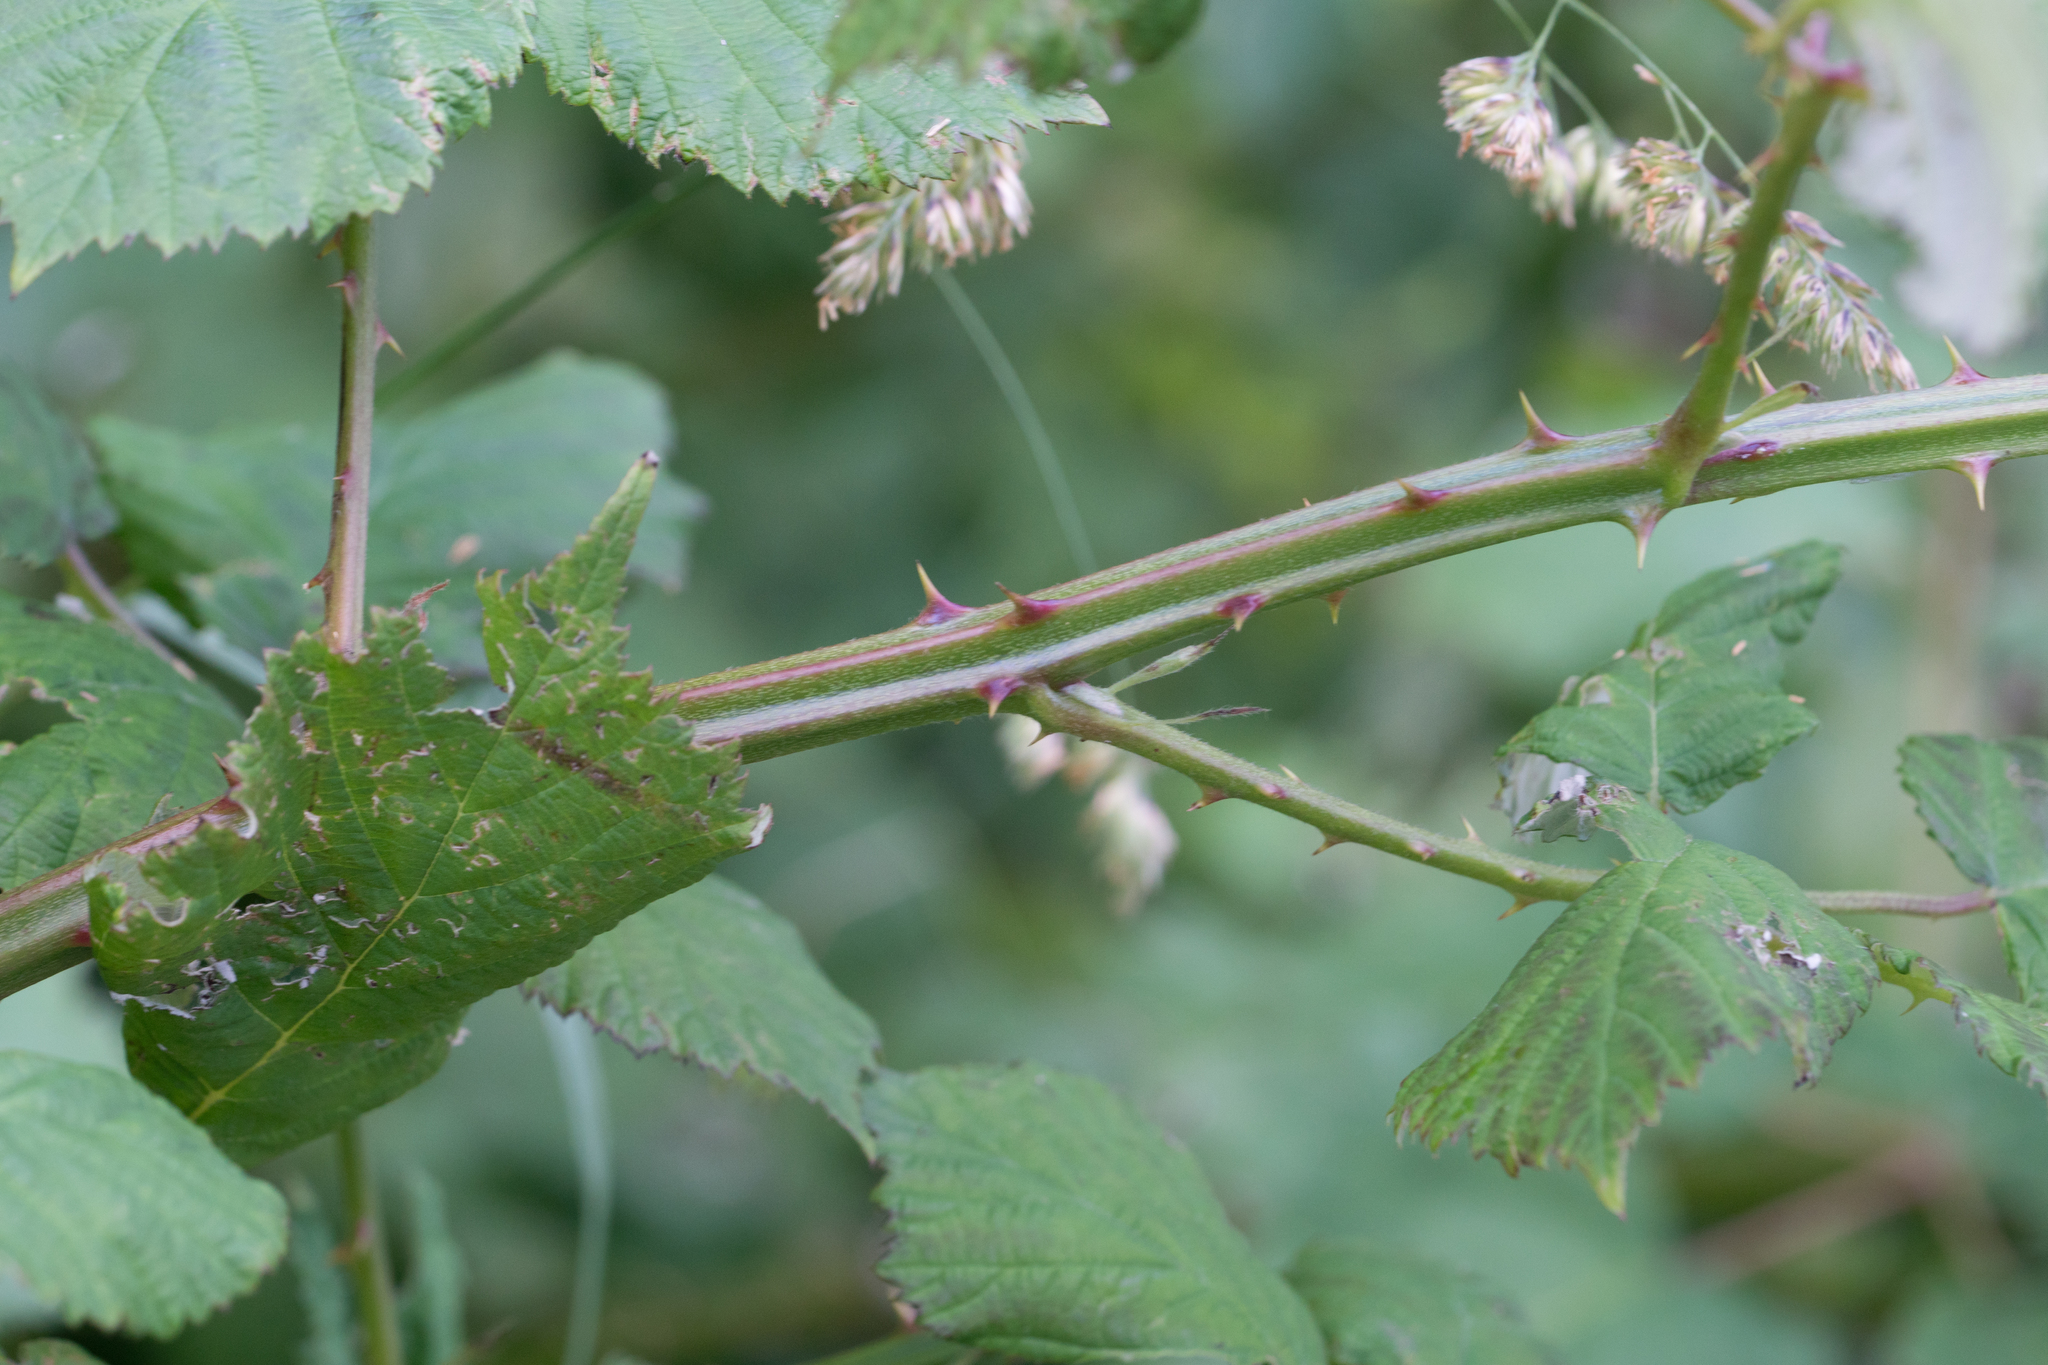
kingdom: Plantae
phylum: Tracheophyta
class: Magnoliopsida
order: Rosales
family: Rosaceae
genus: Rubus
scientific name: Rubus armeniacus
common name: Himalayan blackberry
